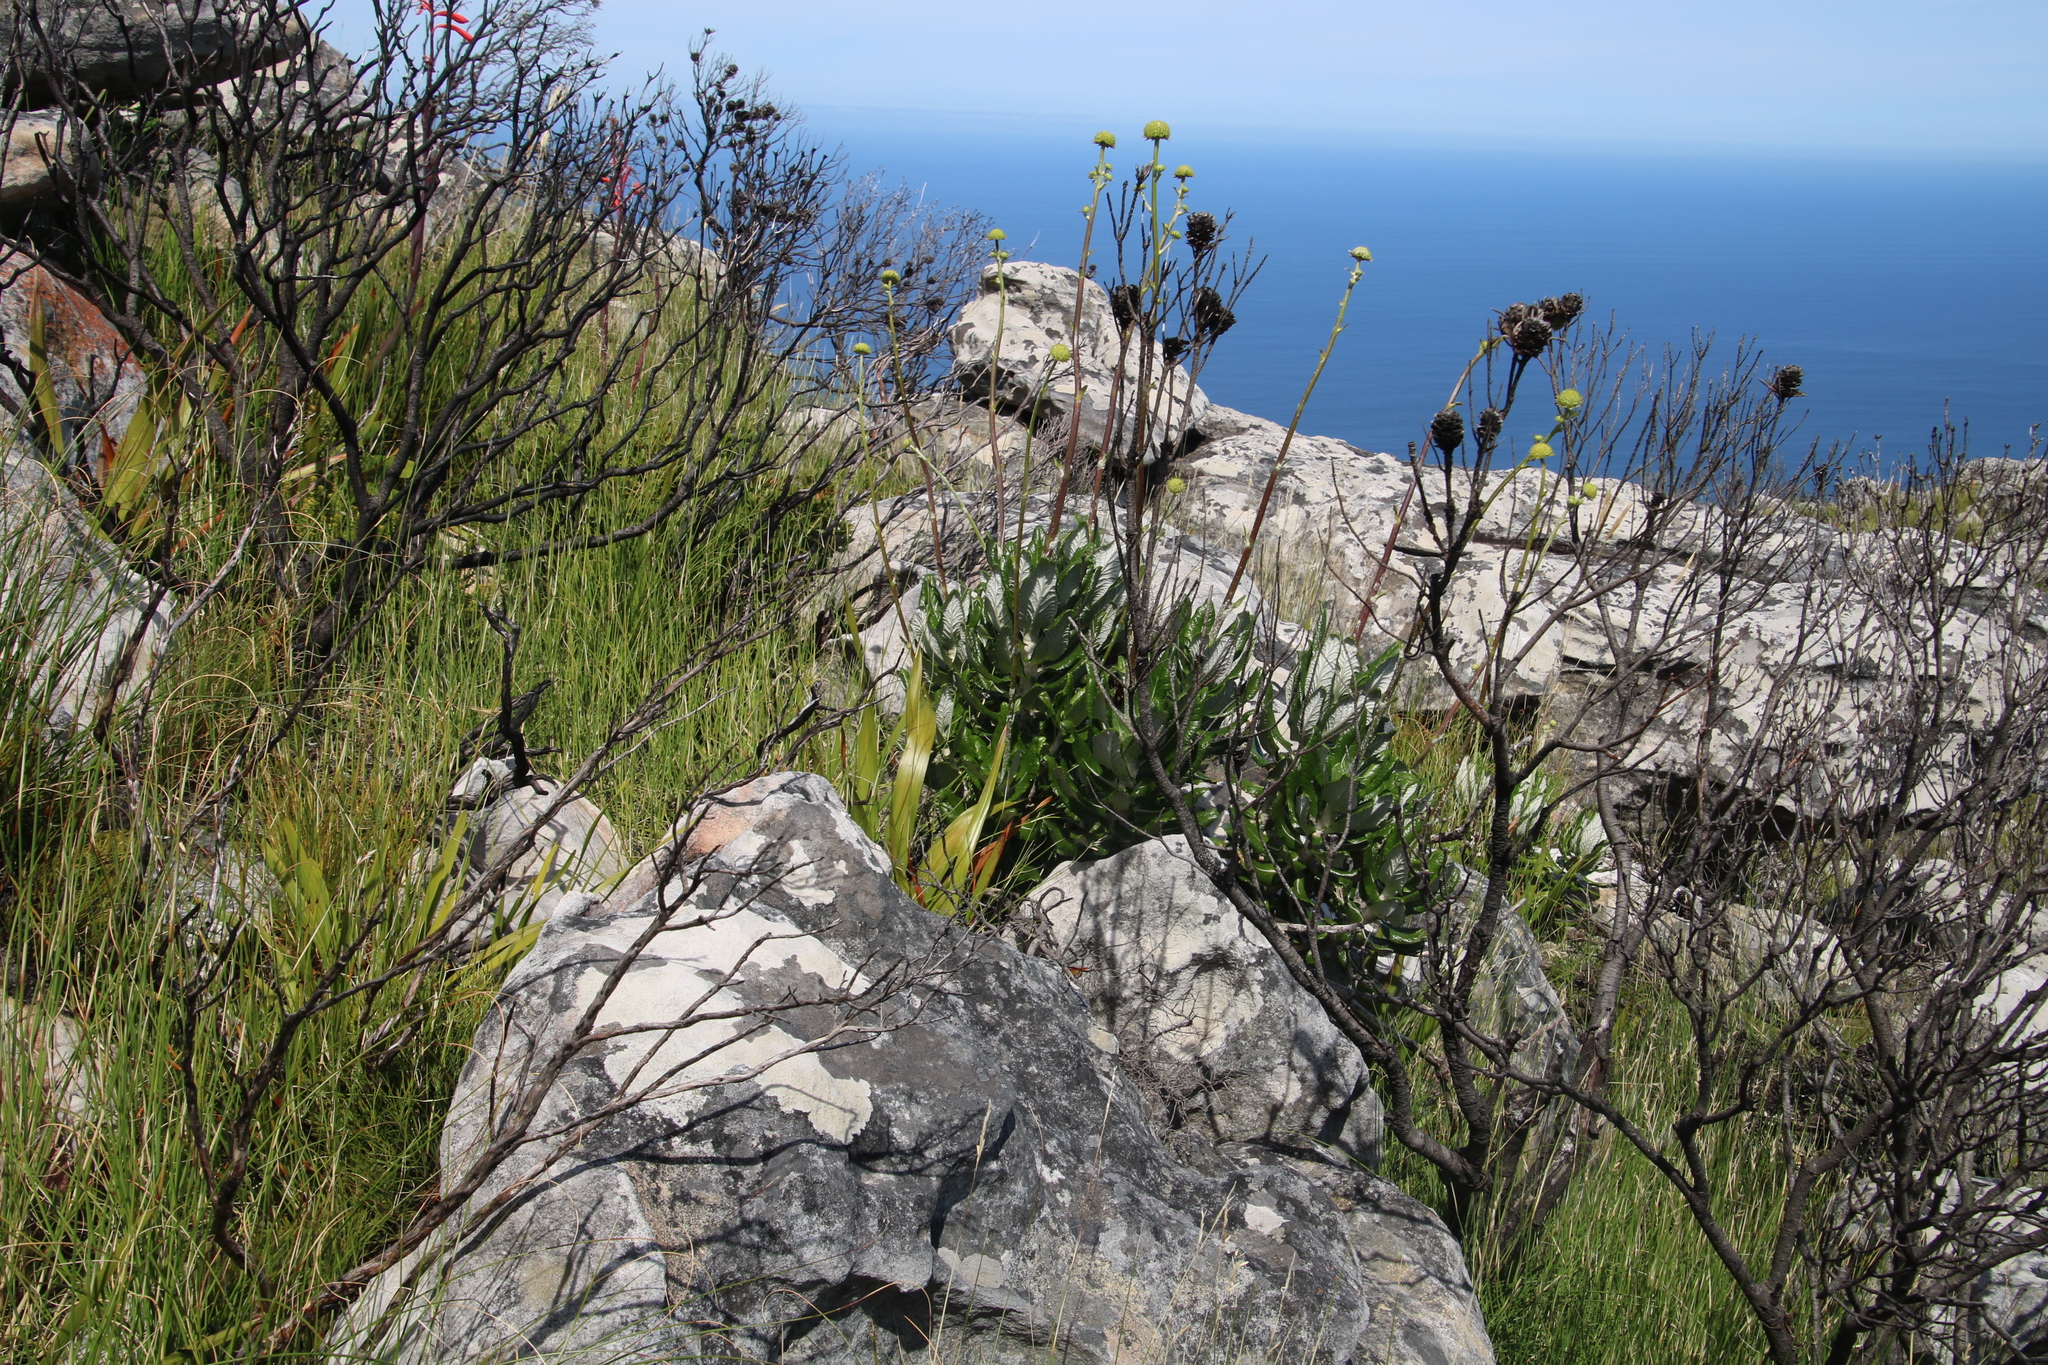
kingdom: Plantae
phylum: Tracheophyta
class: Magnoliopsida
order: Apiales
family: Apiaceae
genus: Hermas
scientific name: Hermas villosa
